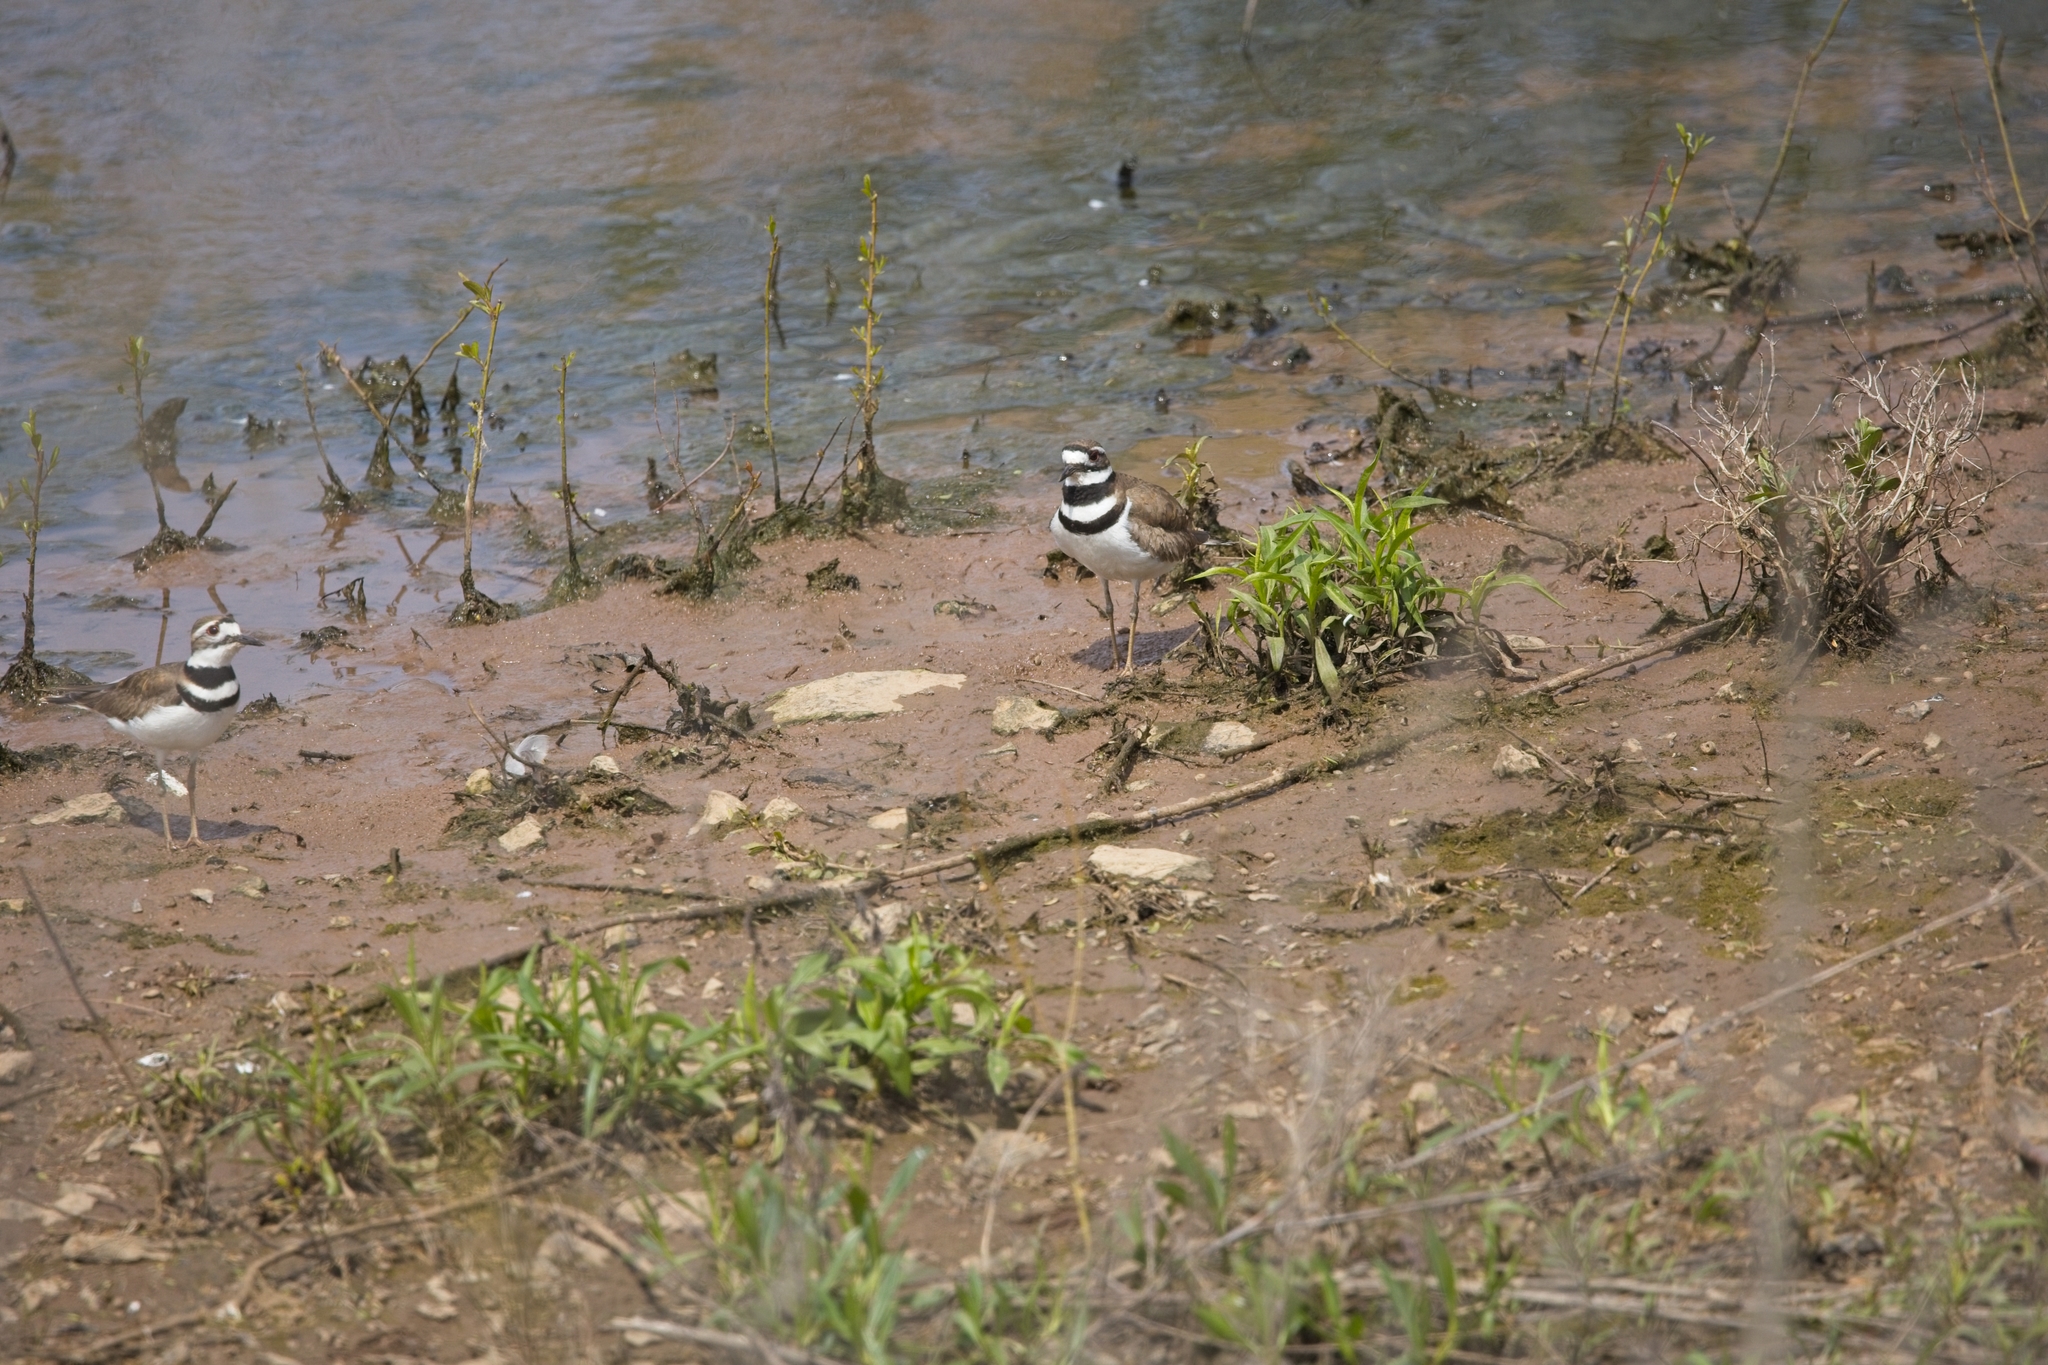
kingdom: Animalia
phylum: Chordata
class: Aves
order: Charadriiformes
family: Charadriidae
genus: Charadrius
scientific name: Charadrius vociferus
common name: Killdeer
